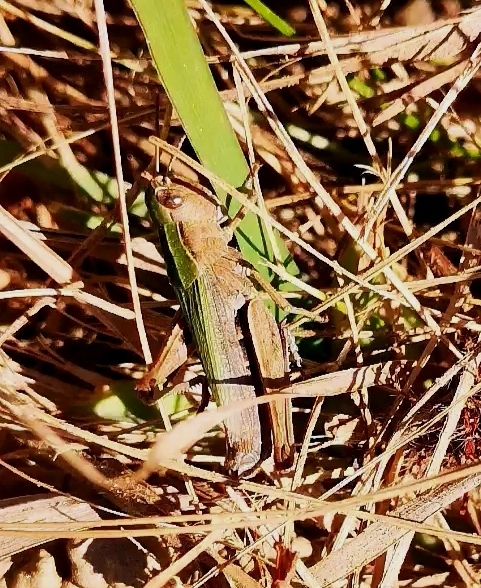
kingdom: Animalia
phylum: Arthropoda
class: Insecta
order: Orthoptera
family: Acrididae
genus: Chorthippus
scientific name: Chorthippus dorsatus
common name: Steppe grasshopper
